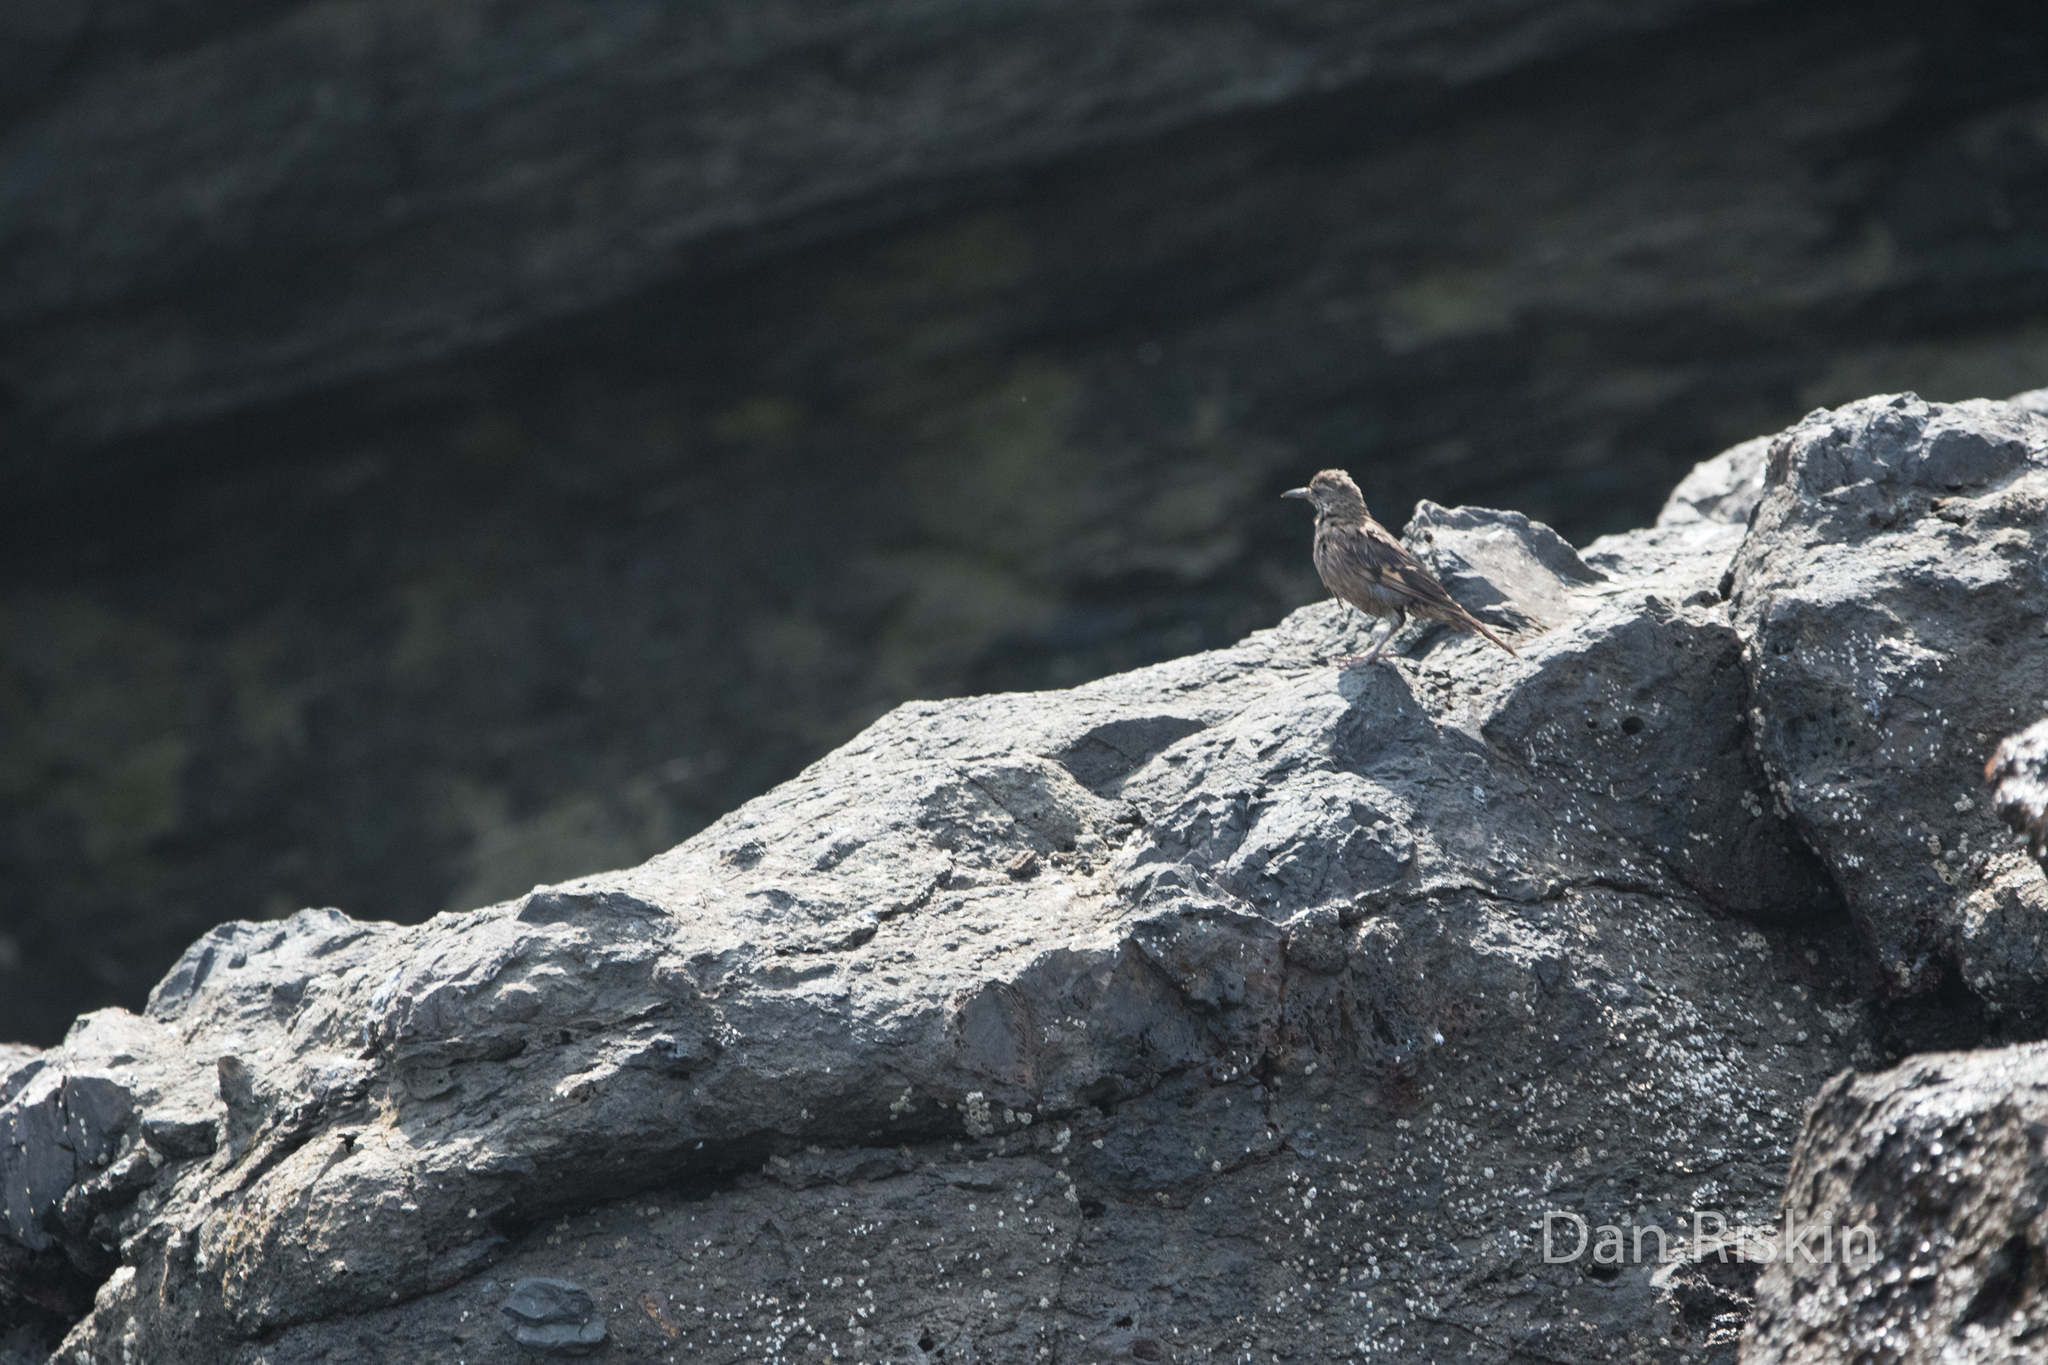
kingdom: Animalia
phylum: Chordata
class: Aves
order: Passeriformes
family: Furnariidae
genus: Cinclodes
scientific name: Cinclodes taczanowskii
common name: Peruvian seaside cinclodes
